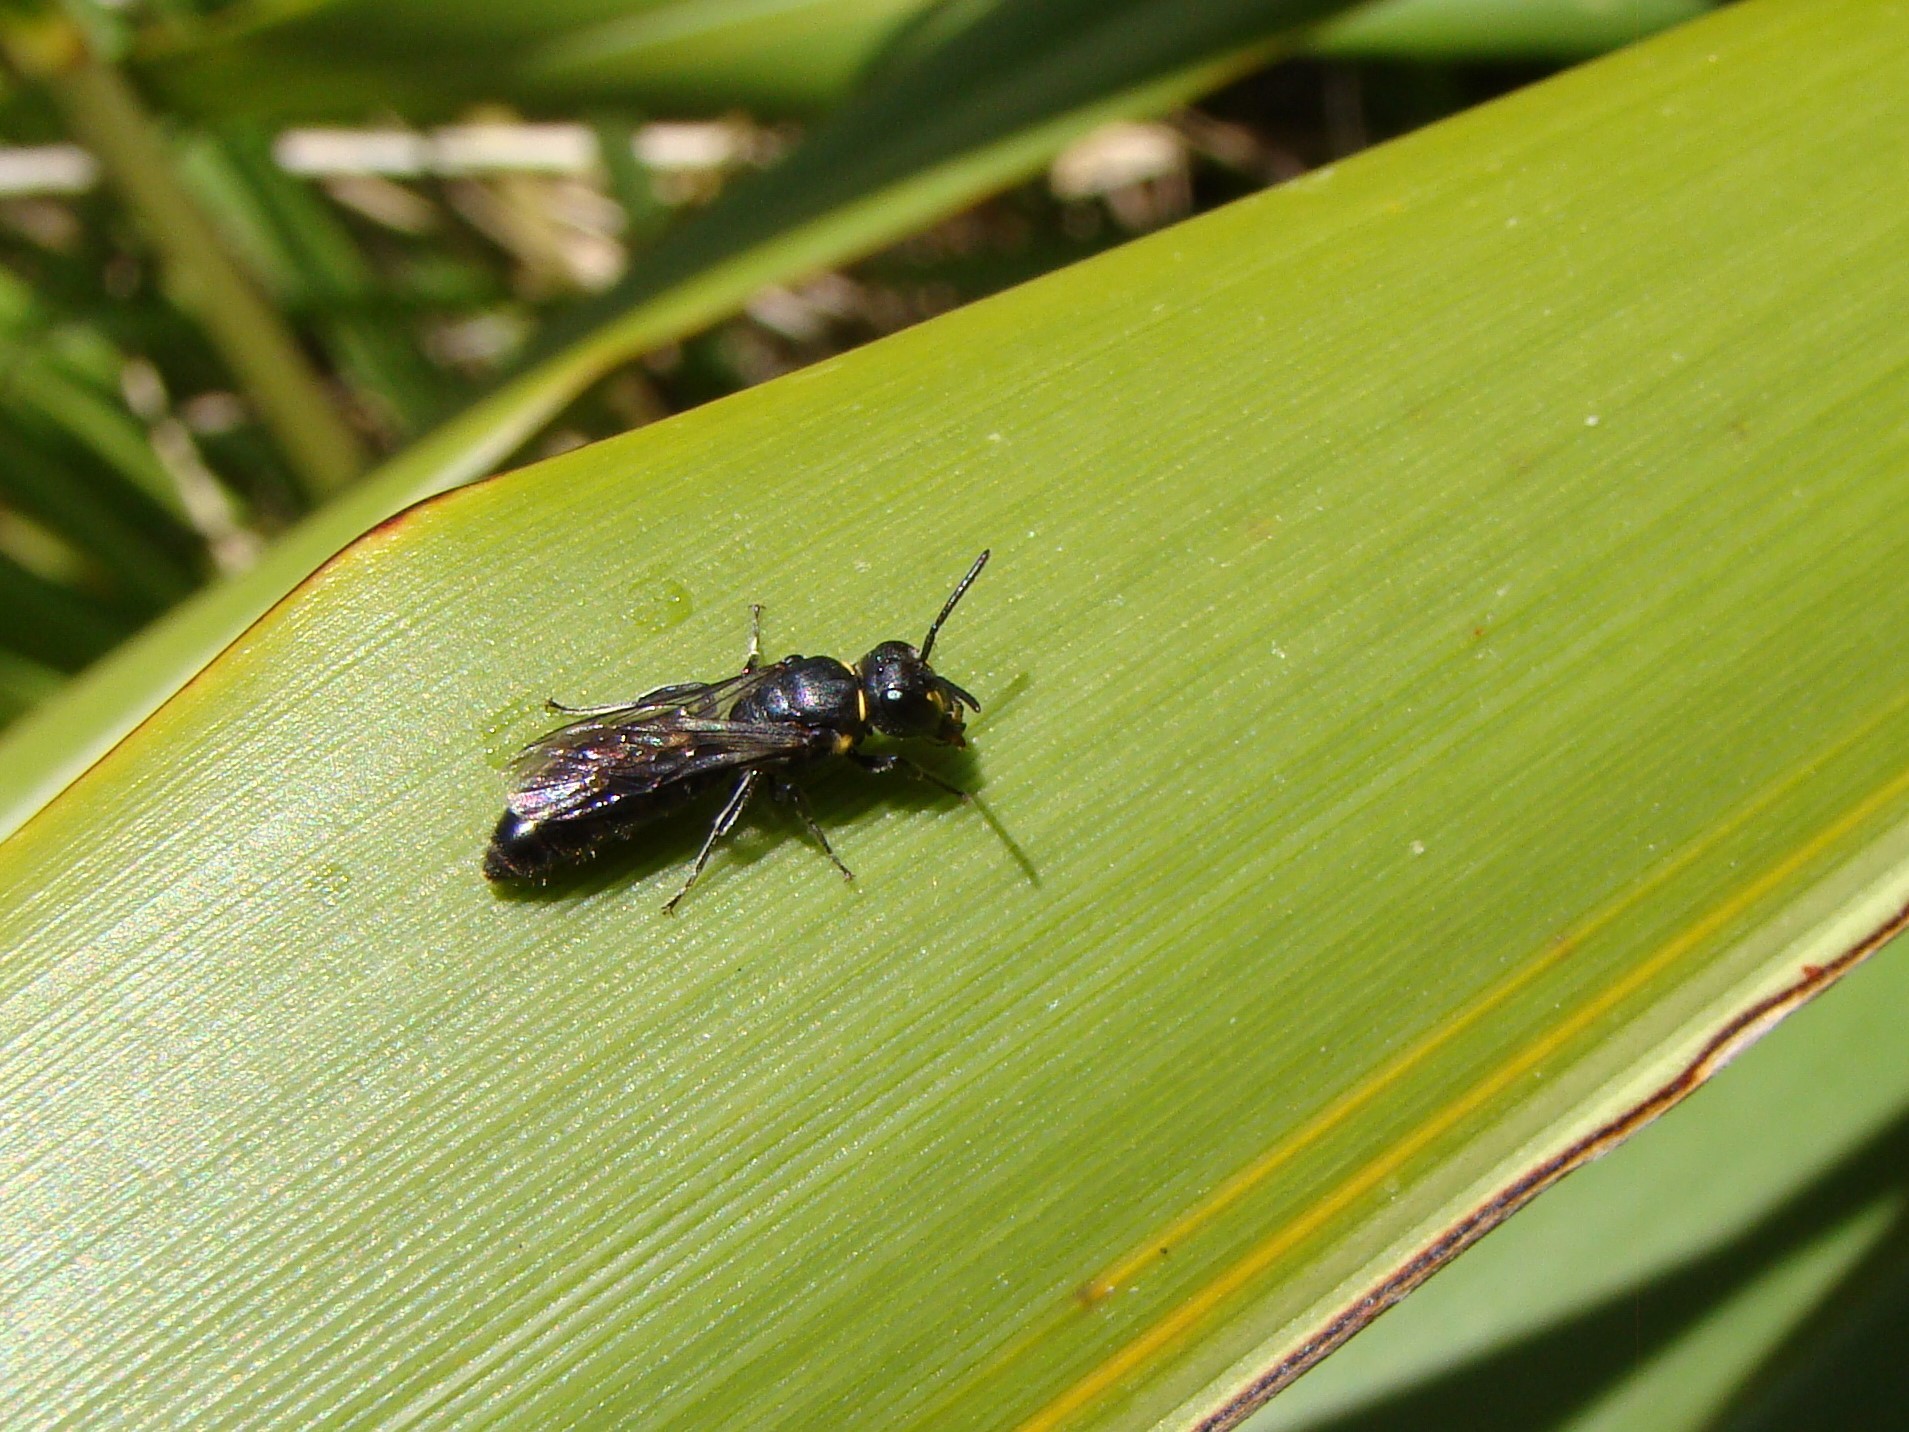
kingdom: Animalia
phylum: Arthropoda
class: Insecta
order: Hymenoptera
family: Colletidae
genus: Hylaeus
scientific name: Hylaeus relegatus
